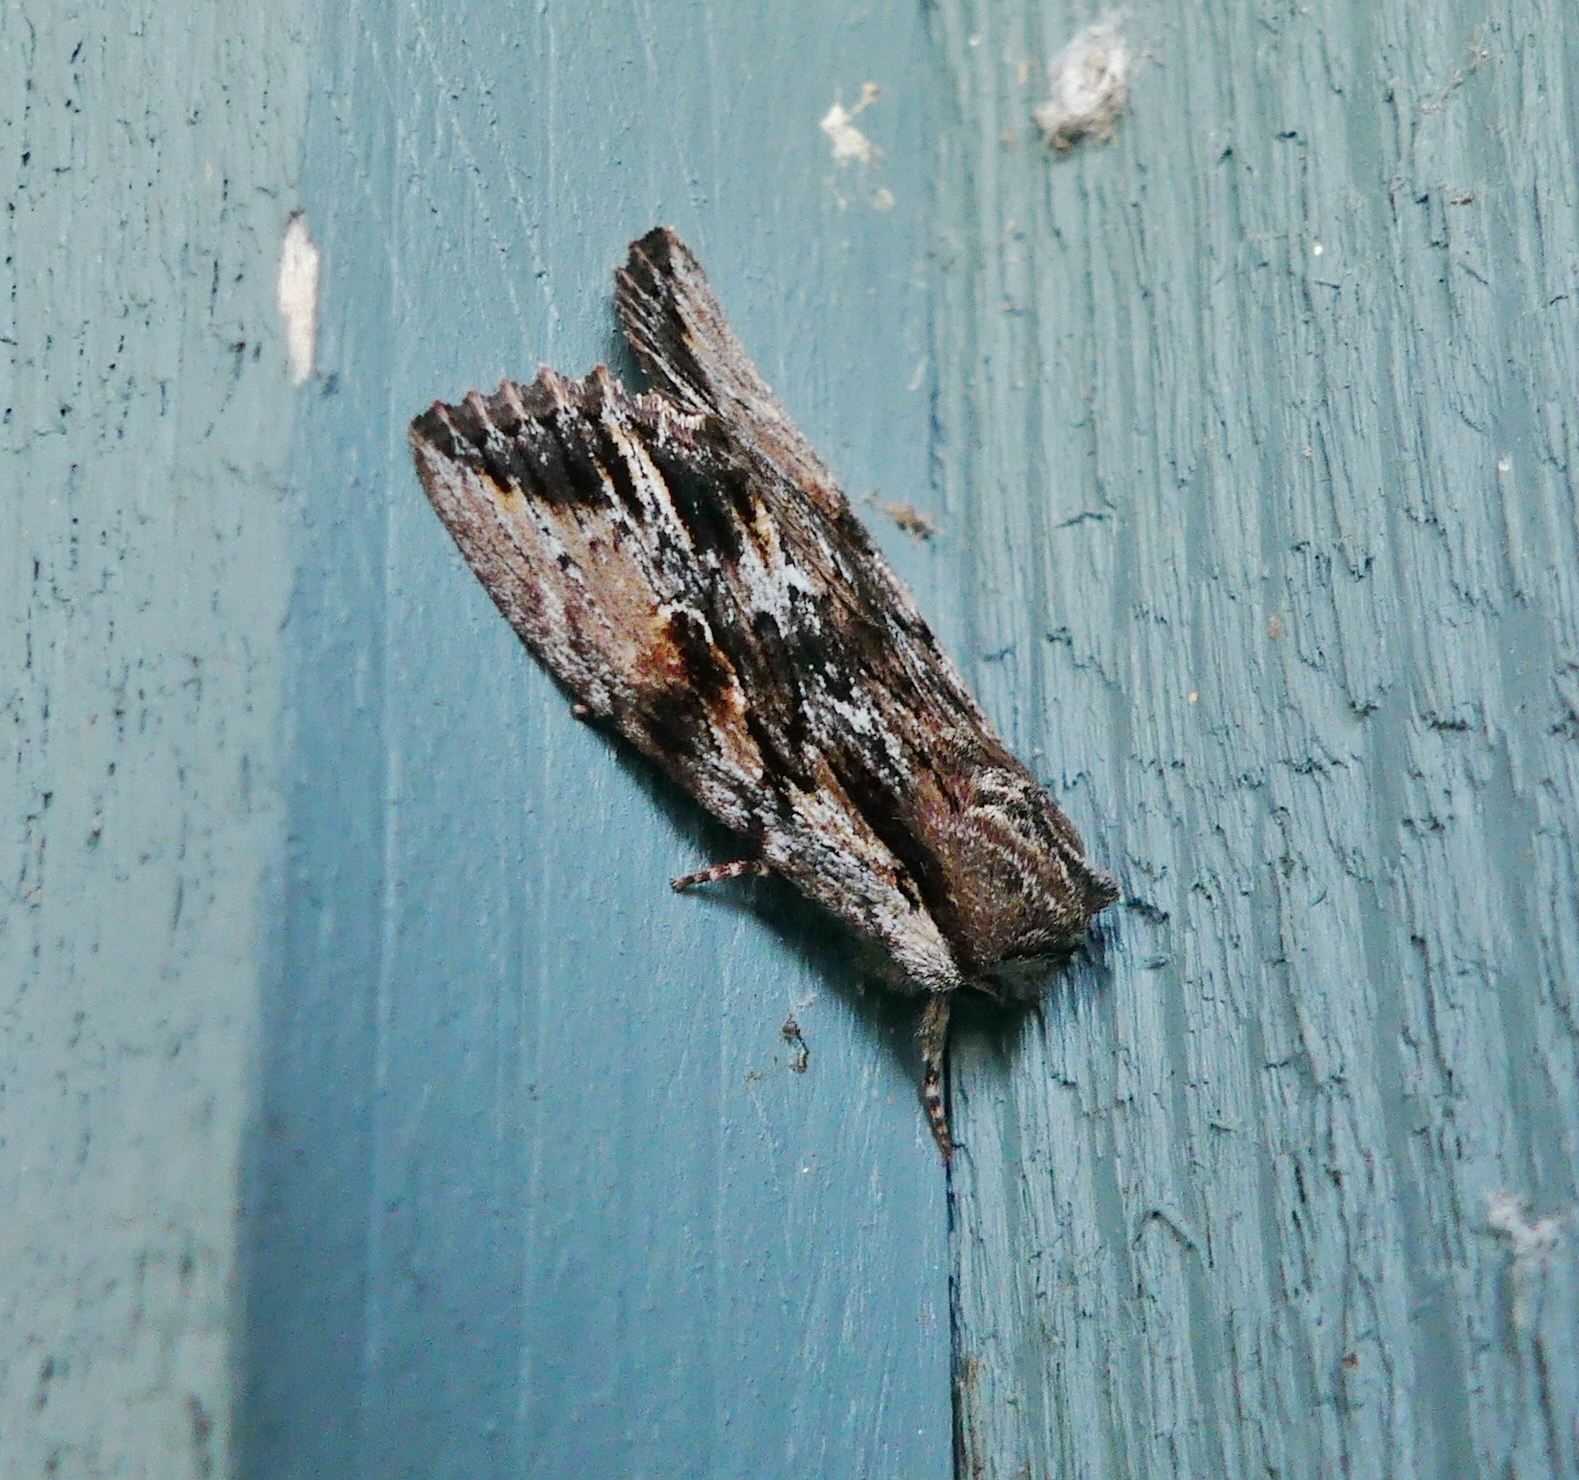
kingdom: Animalia
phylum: Arthropoda
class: Insecta
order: Lepidoptera
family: Noctuidae
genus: Achatia
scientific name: Achatia evicta
